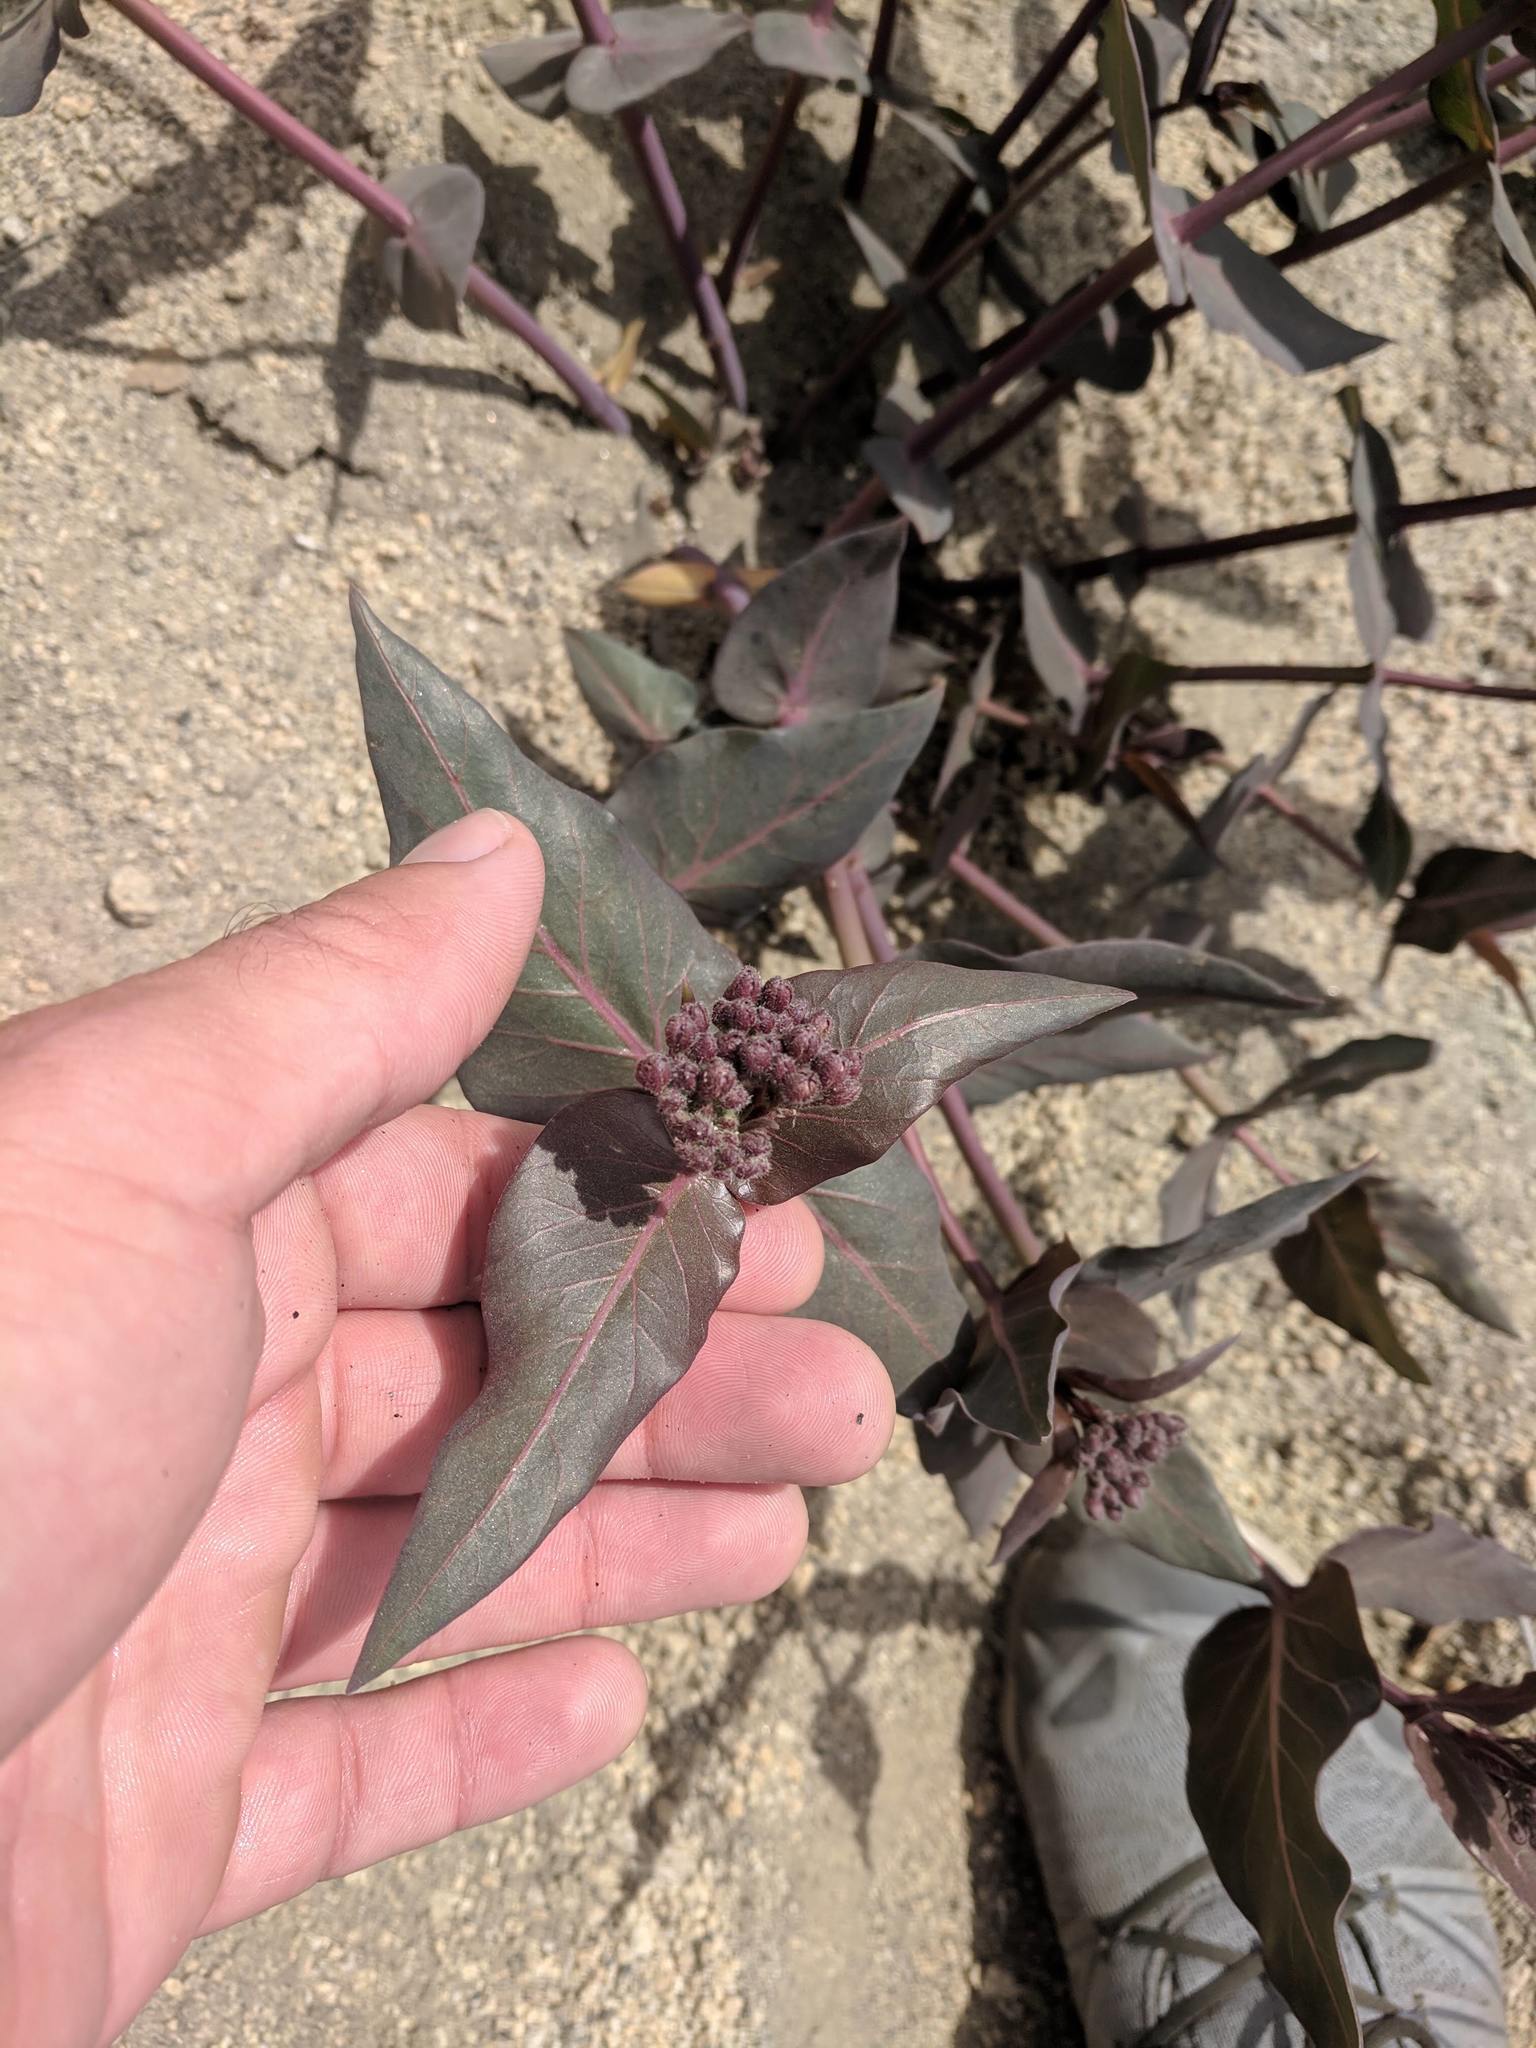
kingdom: Plantae
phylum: Tracheophyta
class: Magnoliopsida
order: Gentianales
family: Apocynaceae
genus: Asclepias
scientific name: Asclepias cordifolia
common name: Purple milkweed
